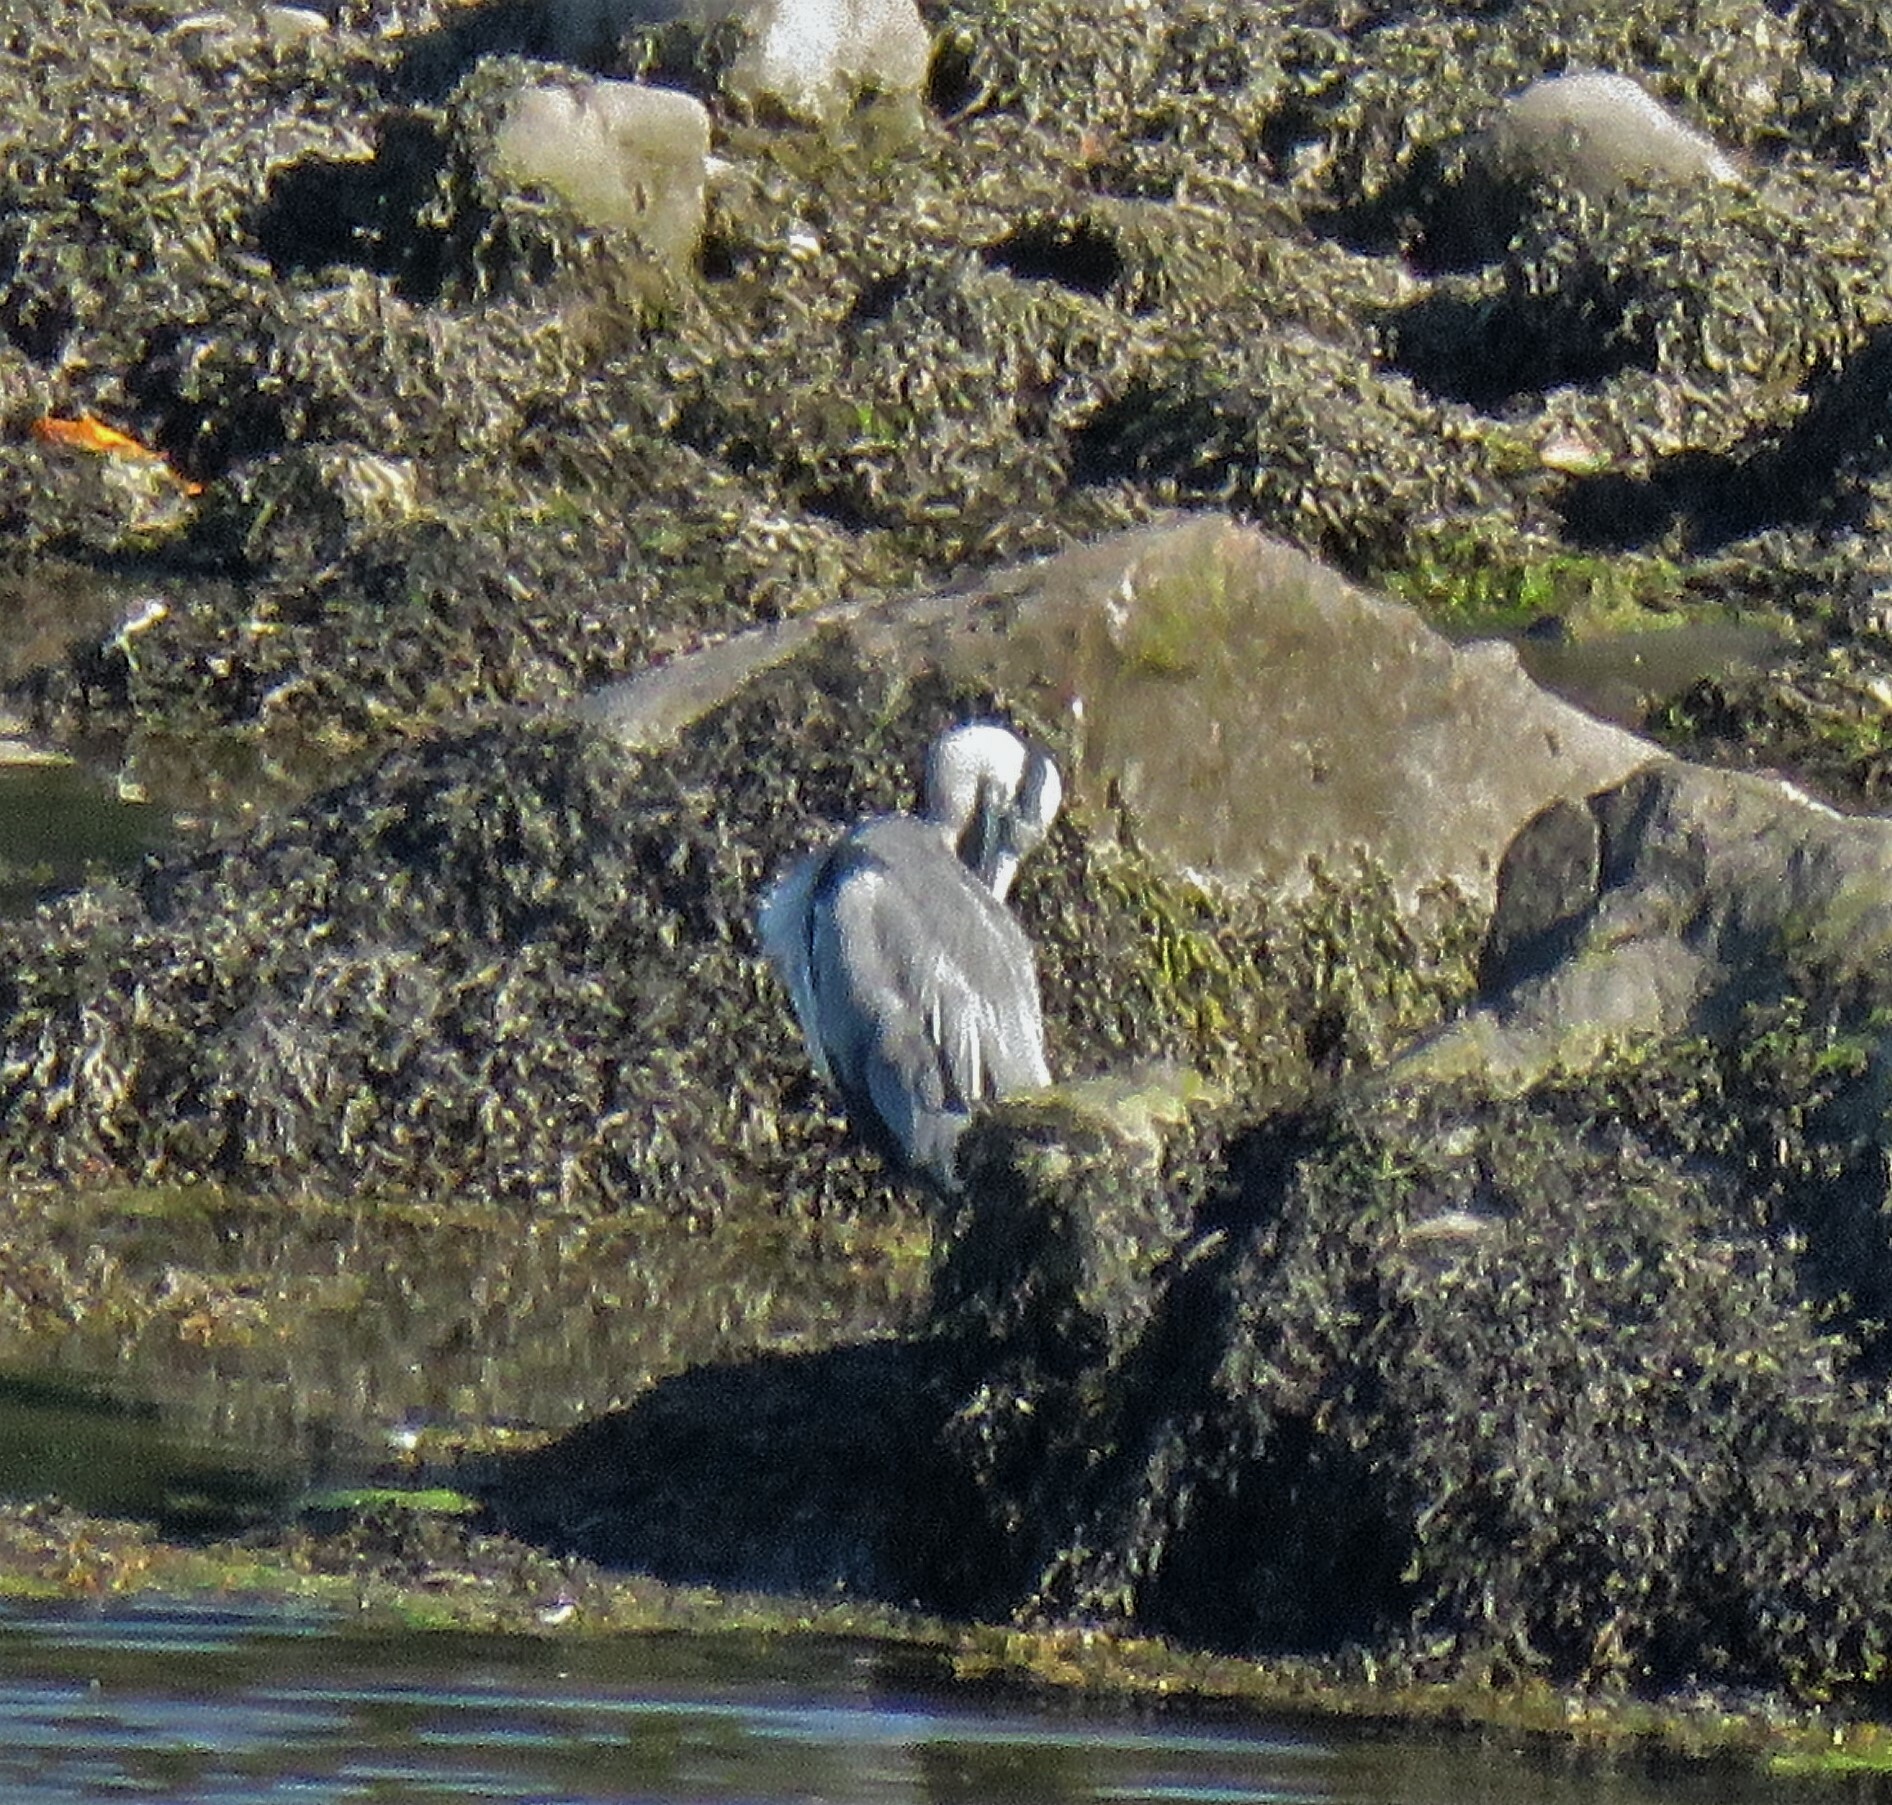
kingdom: Animalia
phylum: Chordata
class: Aves
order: Pelecaniformes
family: Ardeidae
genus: Ardea
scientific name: Ardea cinerea
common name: Grey heron
